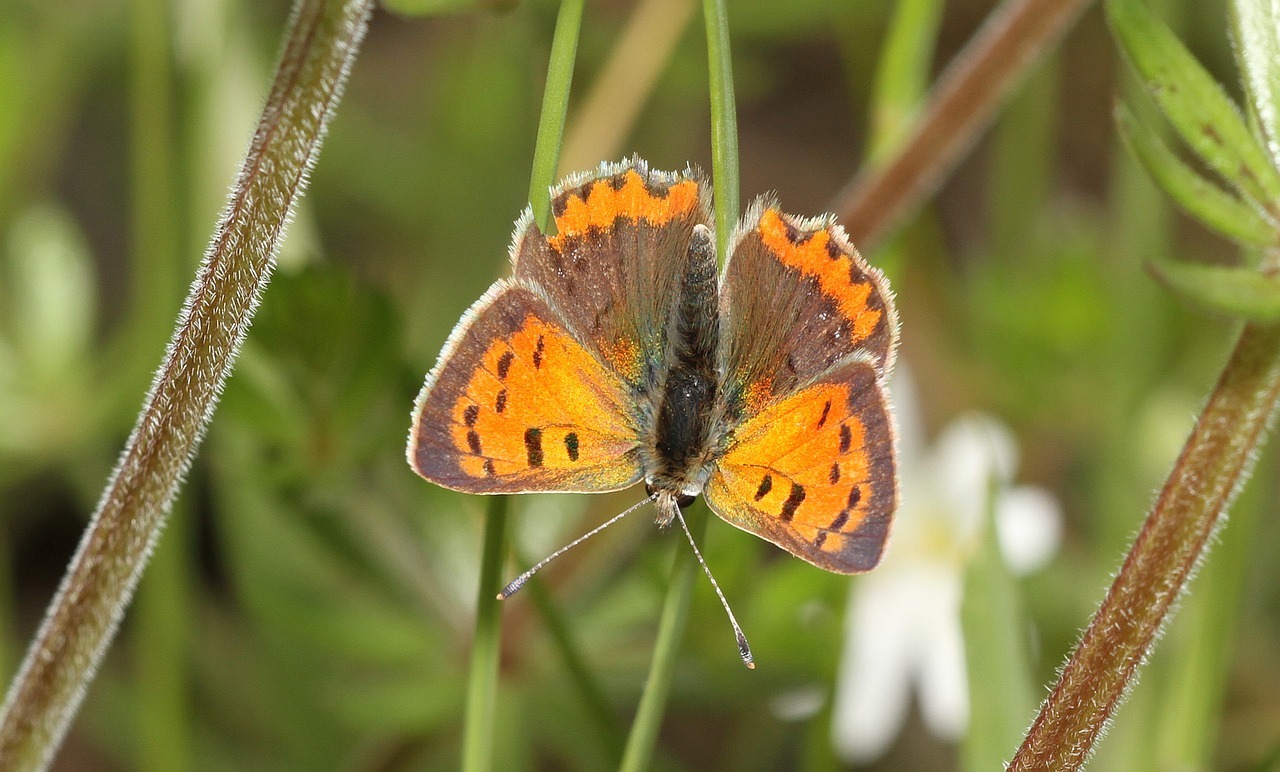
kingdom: Animalia
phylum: Arthropoda
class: Insecta
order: Lepidoptera
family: Lycaenidae
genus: Lycaena
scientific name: Lycaena phlaeas
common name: Small copper
